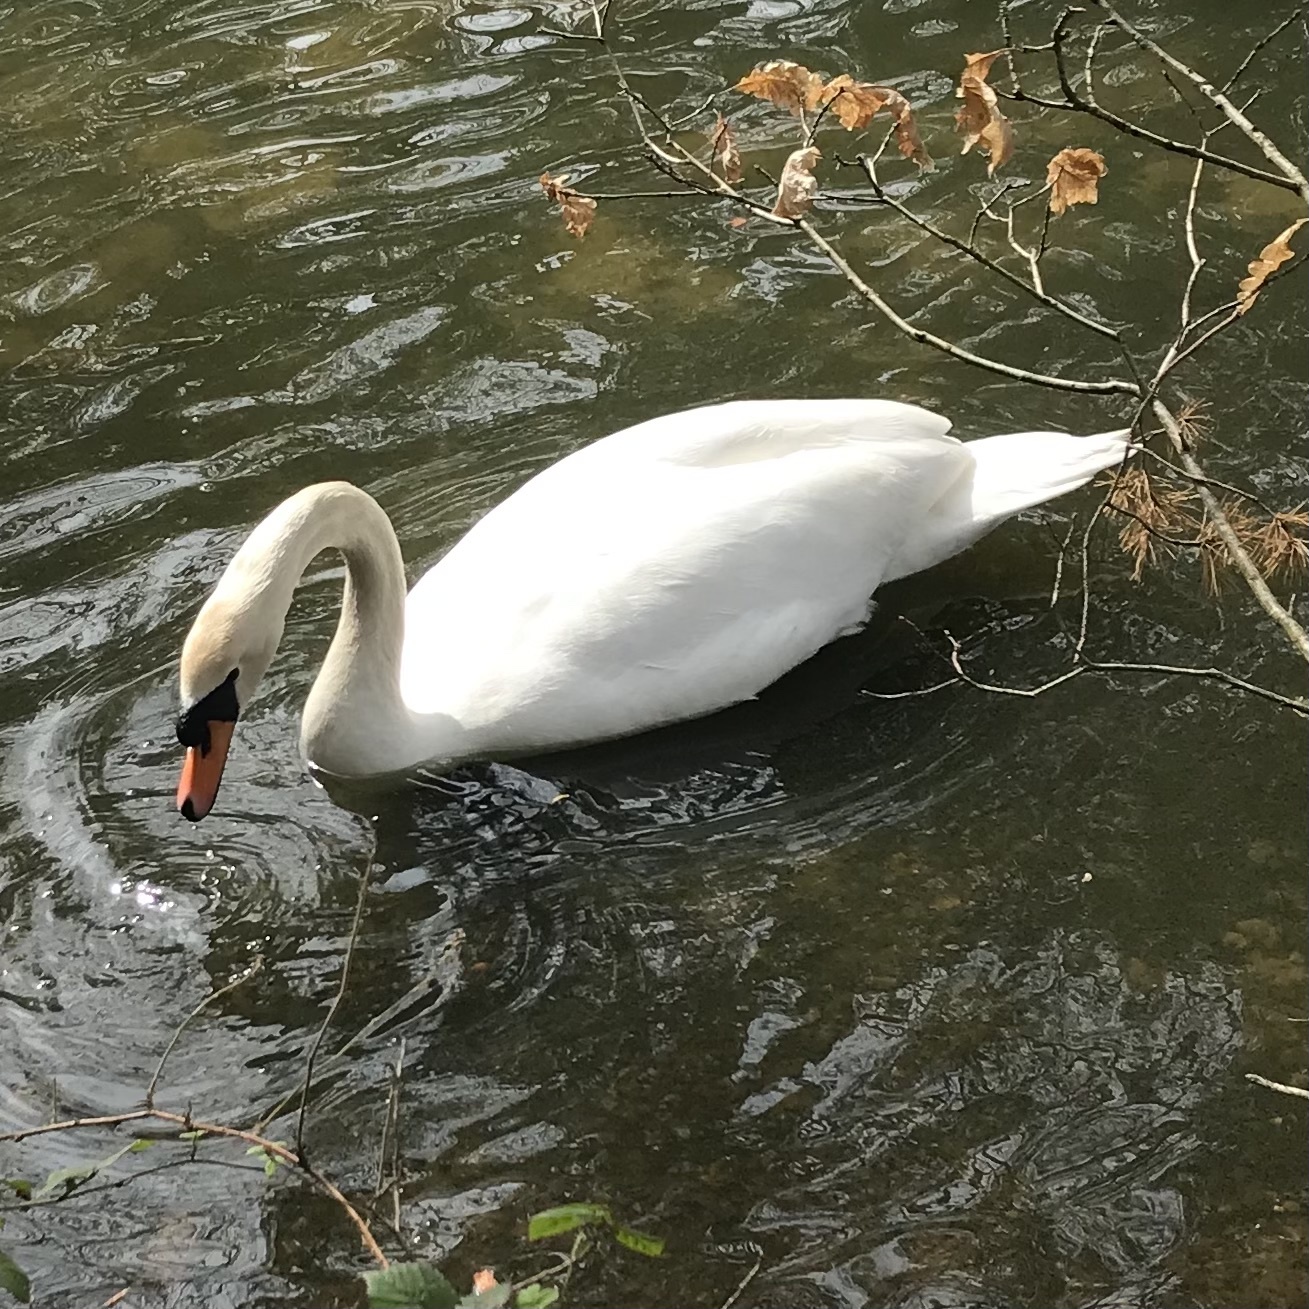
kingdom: Animalia
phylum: Chordata
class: Aves
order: Anseriformes
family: Anatidae
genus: Cygnus
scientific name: Cygnus olor
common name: Mute swan
